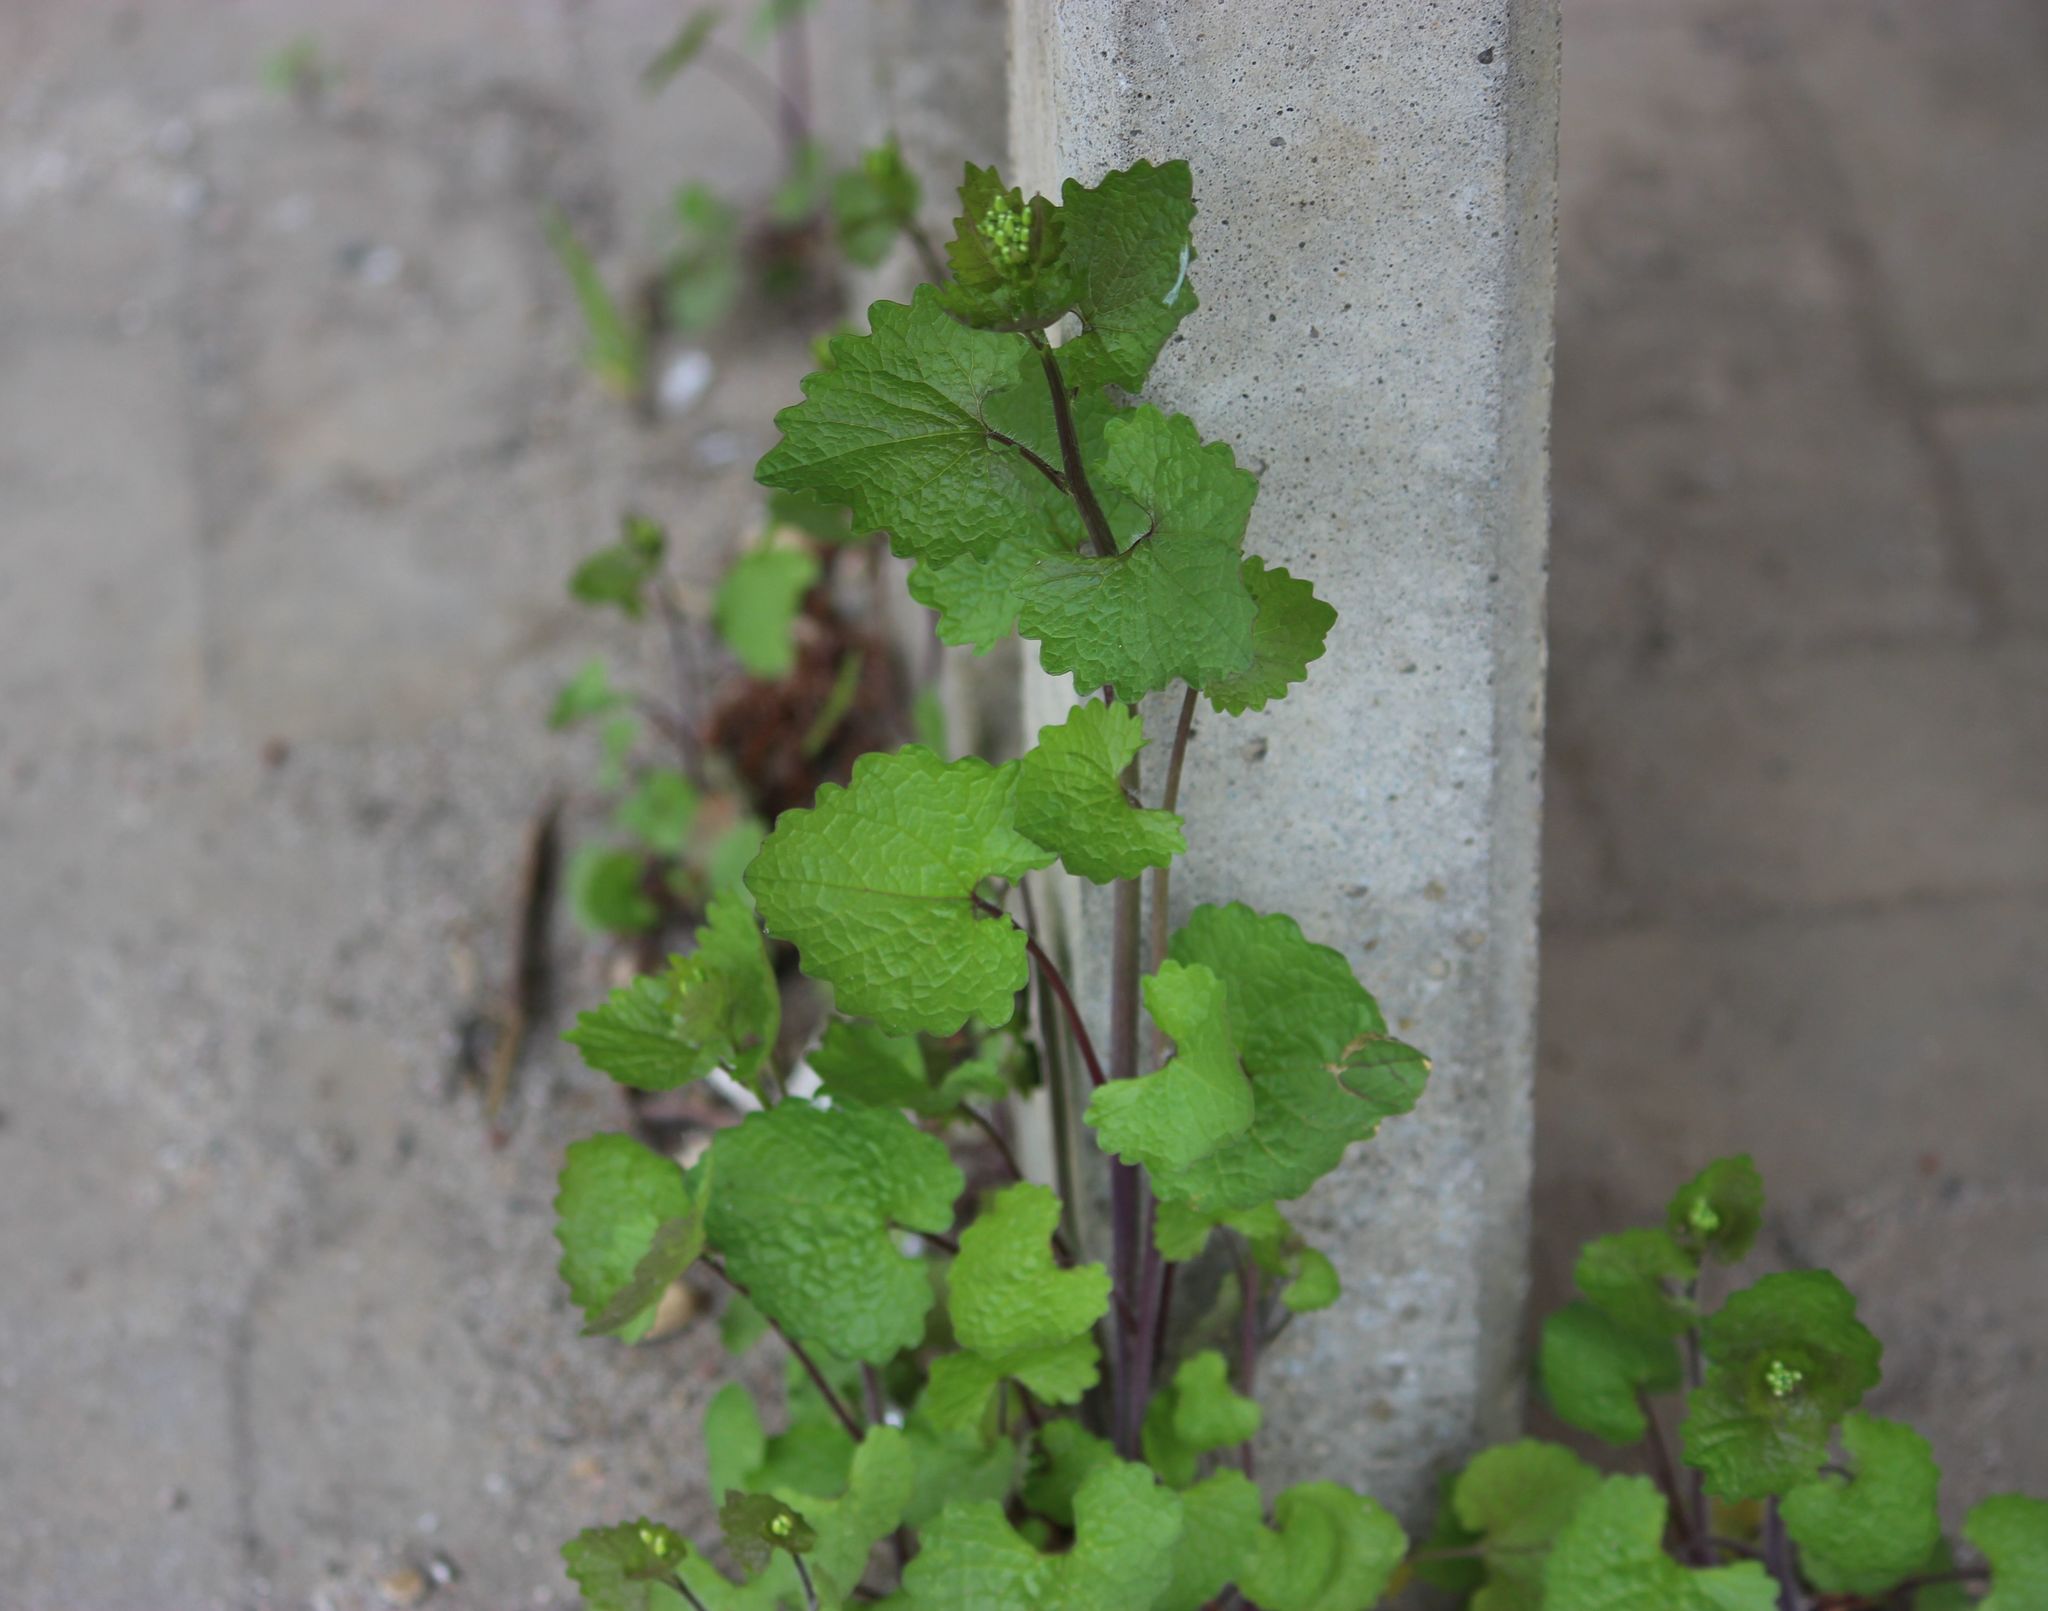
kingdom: Plantae
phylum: Tracheophyta
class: Magnoliopsida
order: Brassicales
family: Brassicaceae
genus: Alliaria
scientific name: Alliaria petiolata
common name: Garlic mustard
